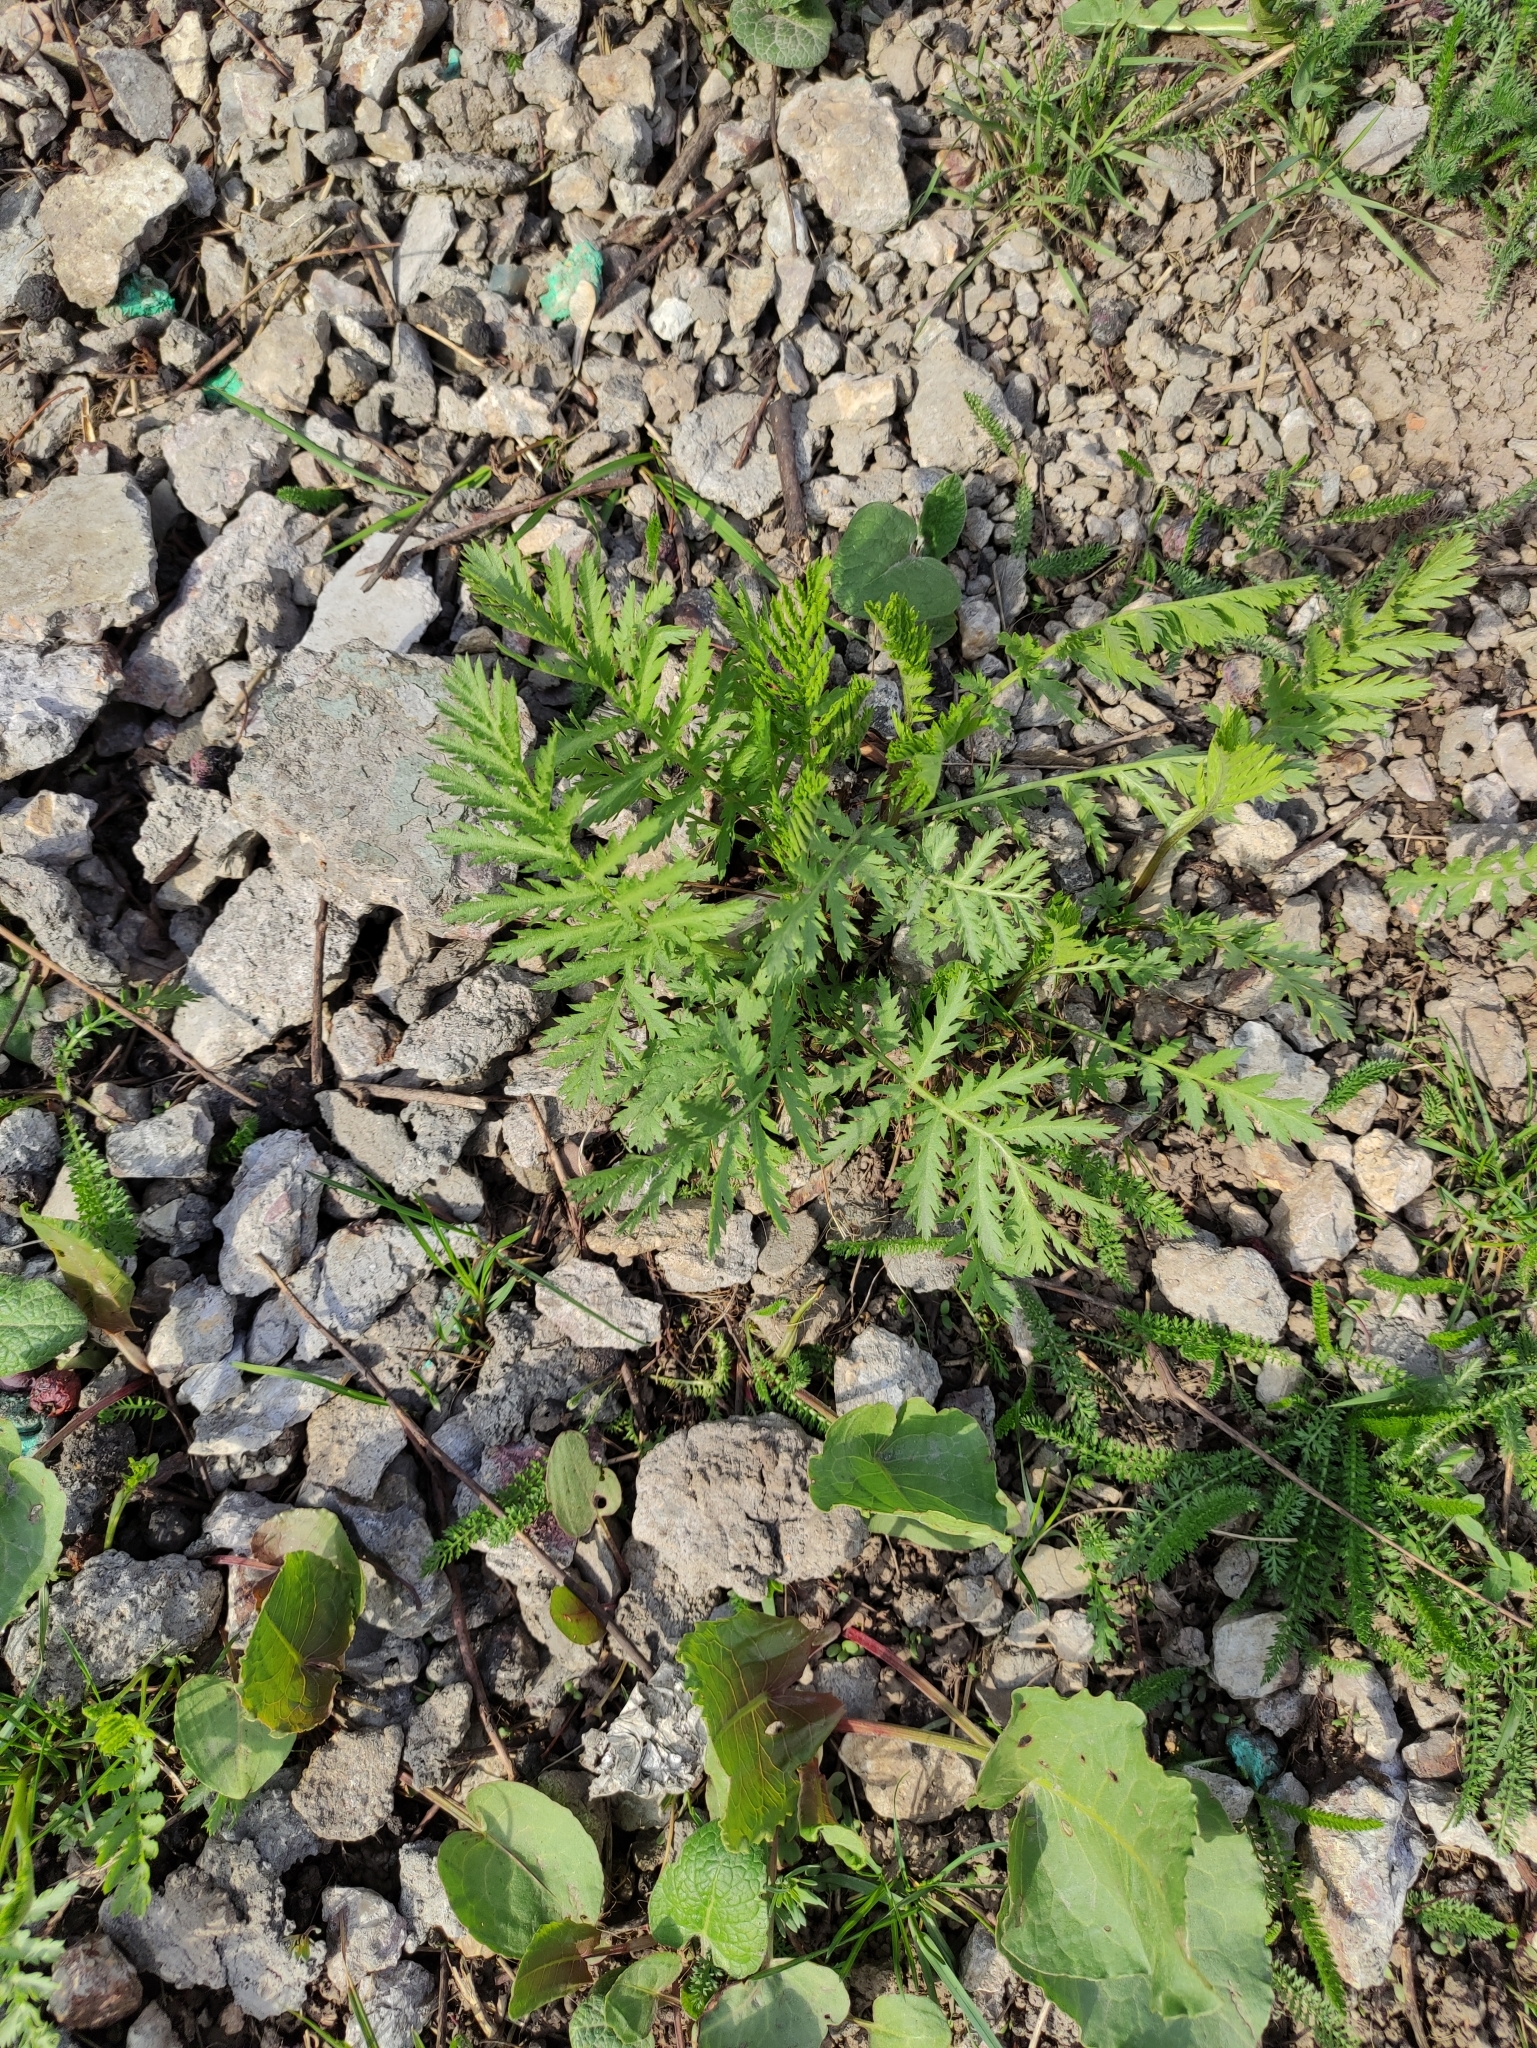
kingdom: Plantae
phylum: Tracheophyta
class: Magnoliopsida
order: Asterales
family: Asteraceae
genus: Tanacetum
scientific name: Tanacetum vulgare
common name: Common tansy
